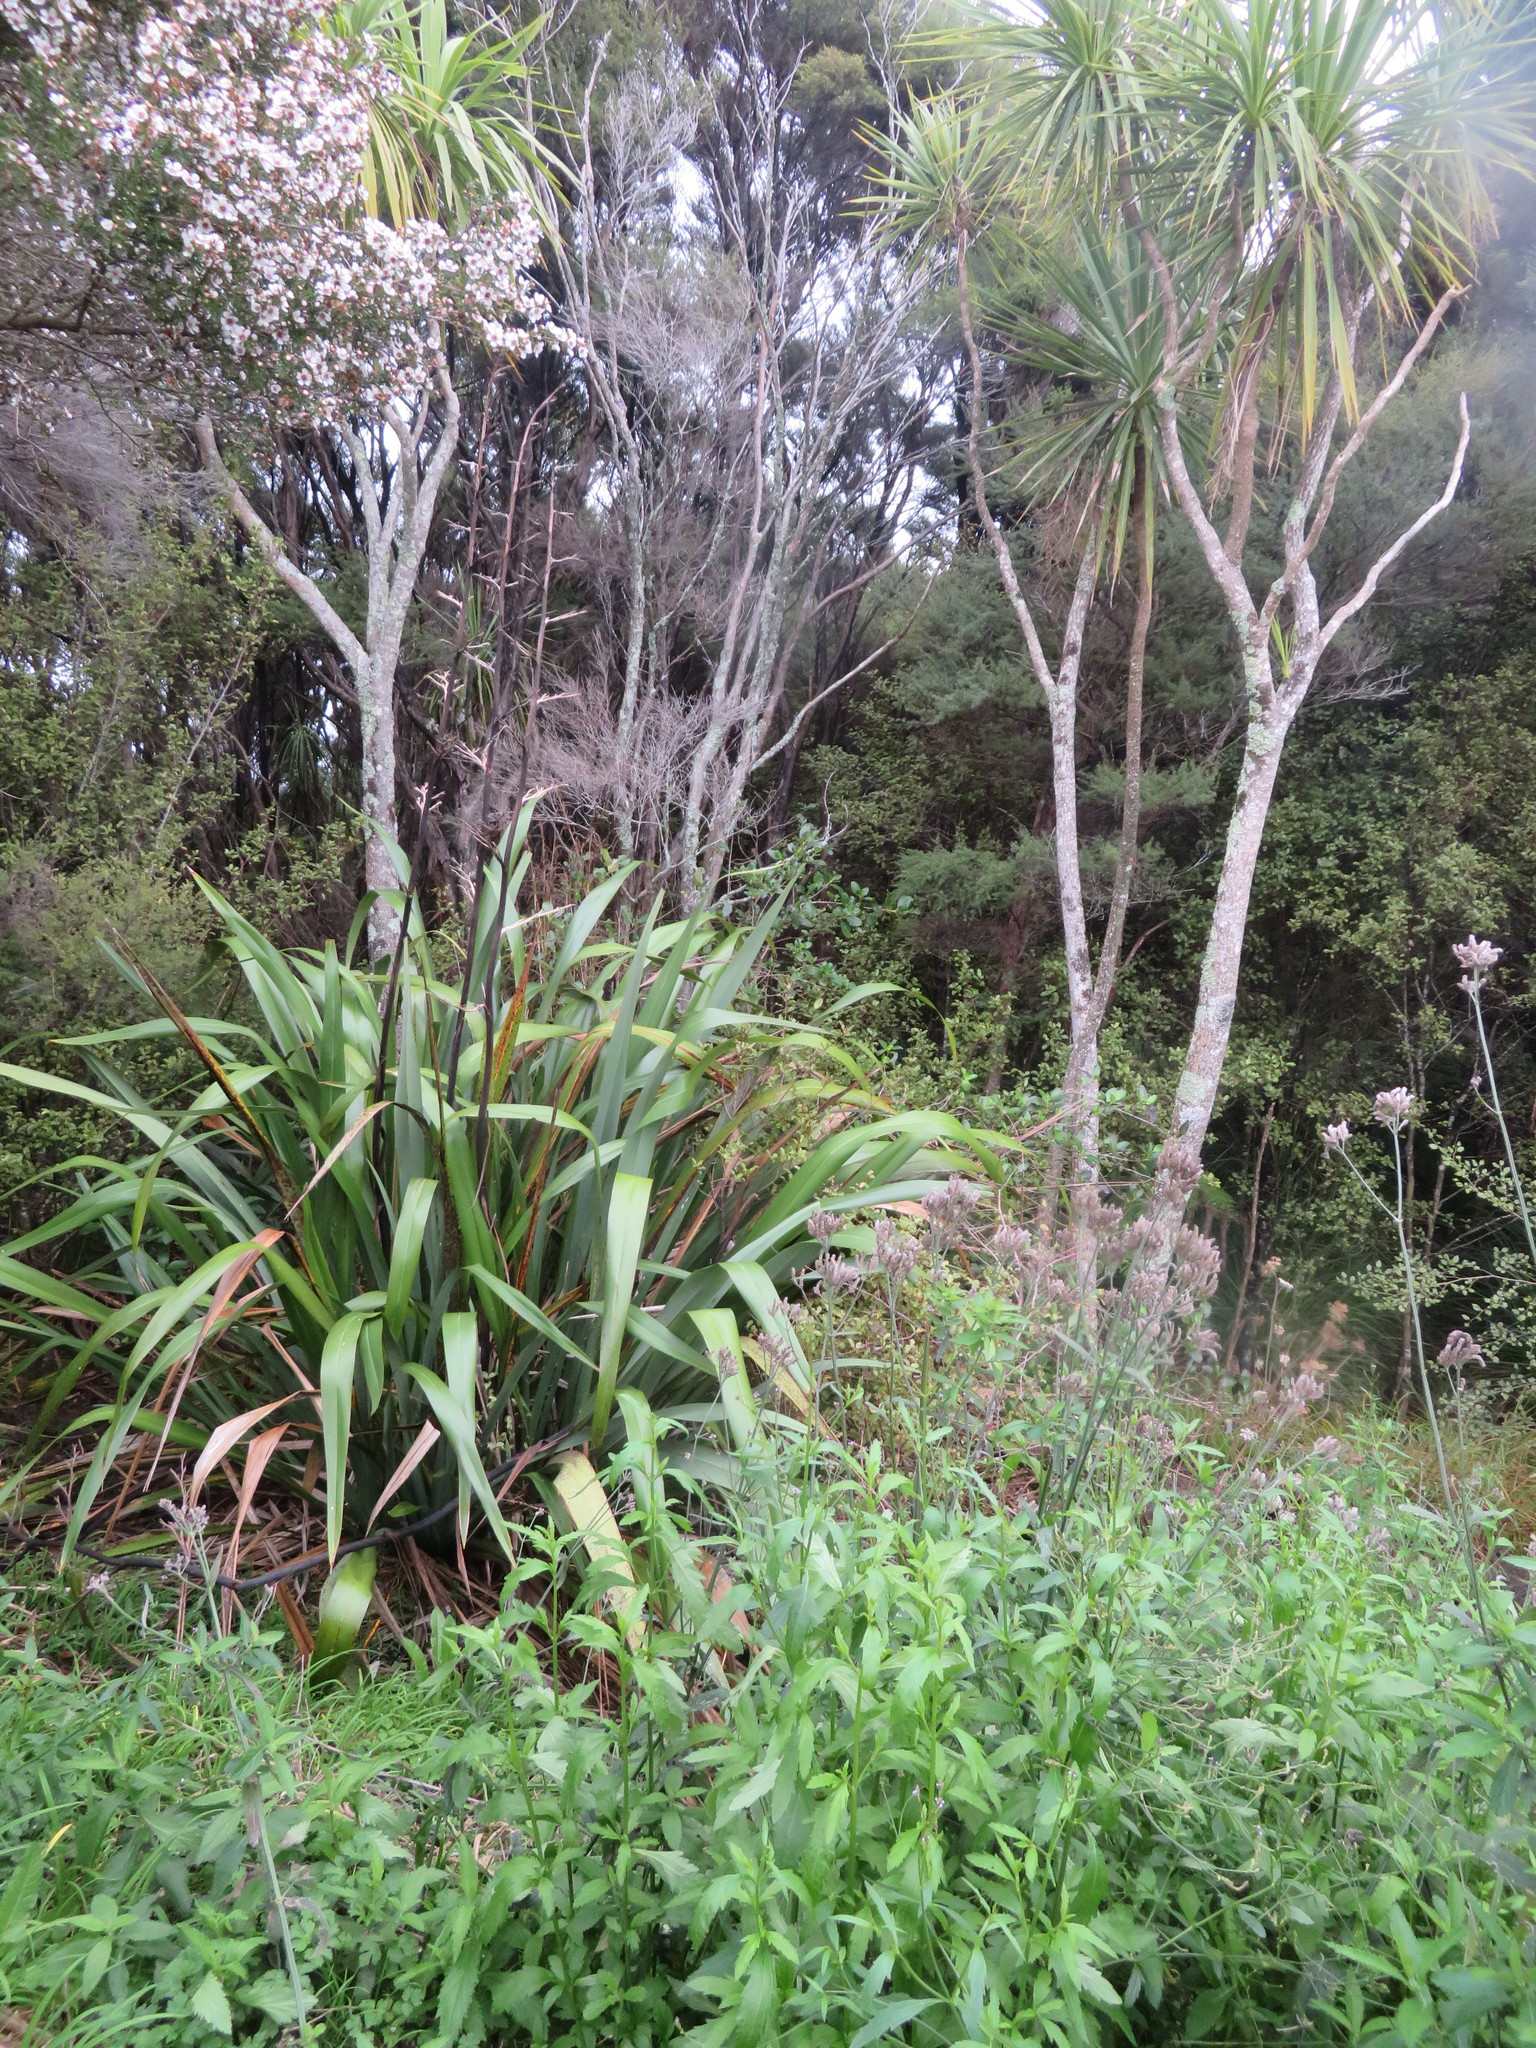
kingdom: Plantae
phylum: Tracheophyta
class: Liliopsida
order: Asparagales
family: Asparagaceae
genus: Cordyline
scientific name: Cordyline australis
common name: Cabbage-palm
